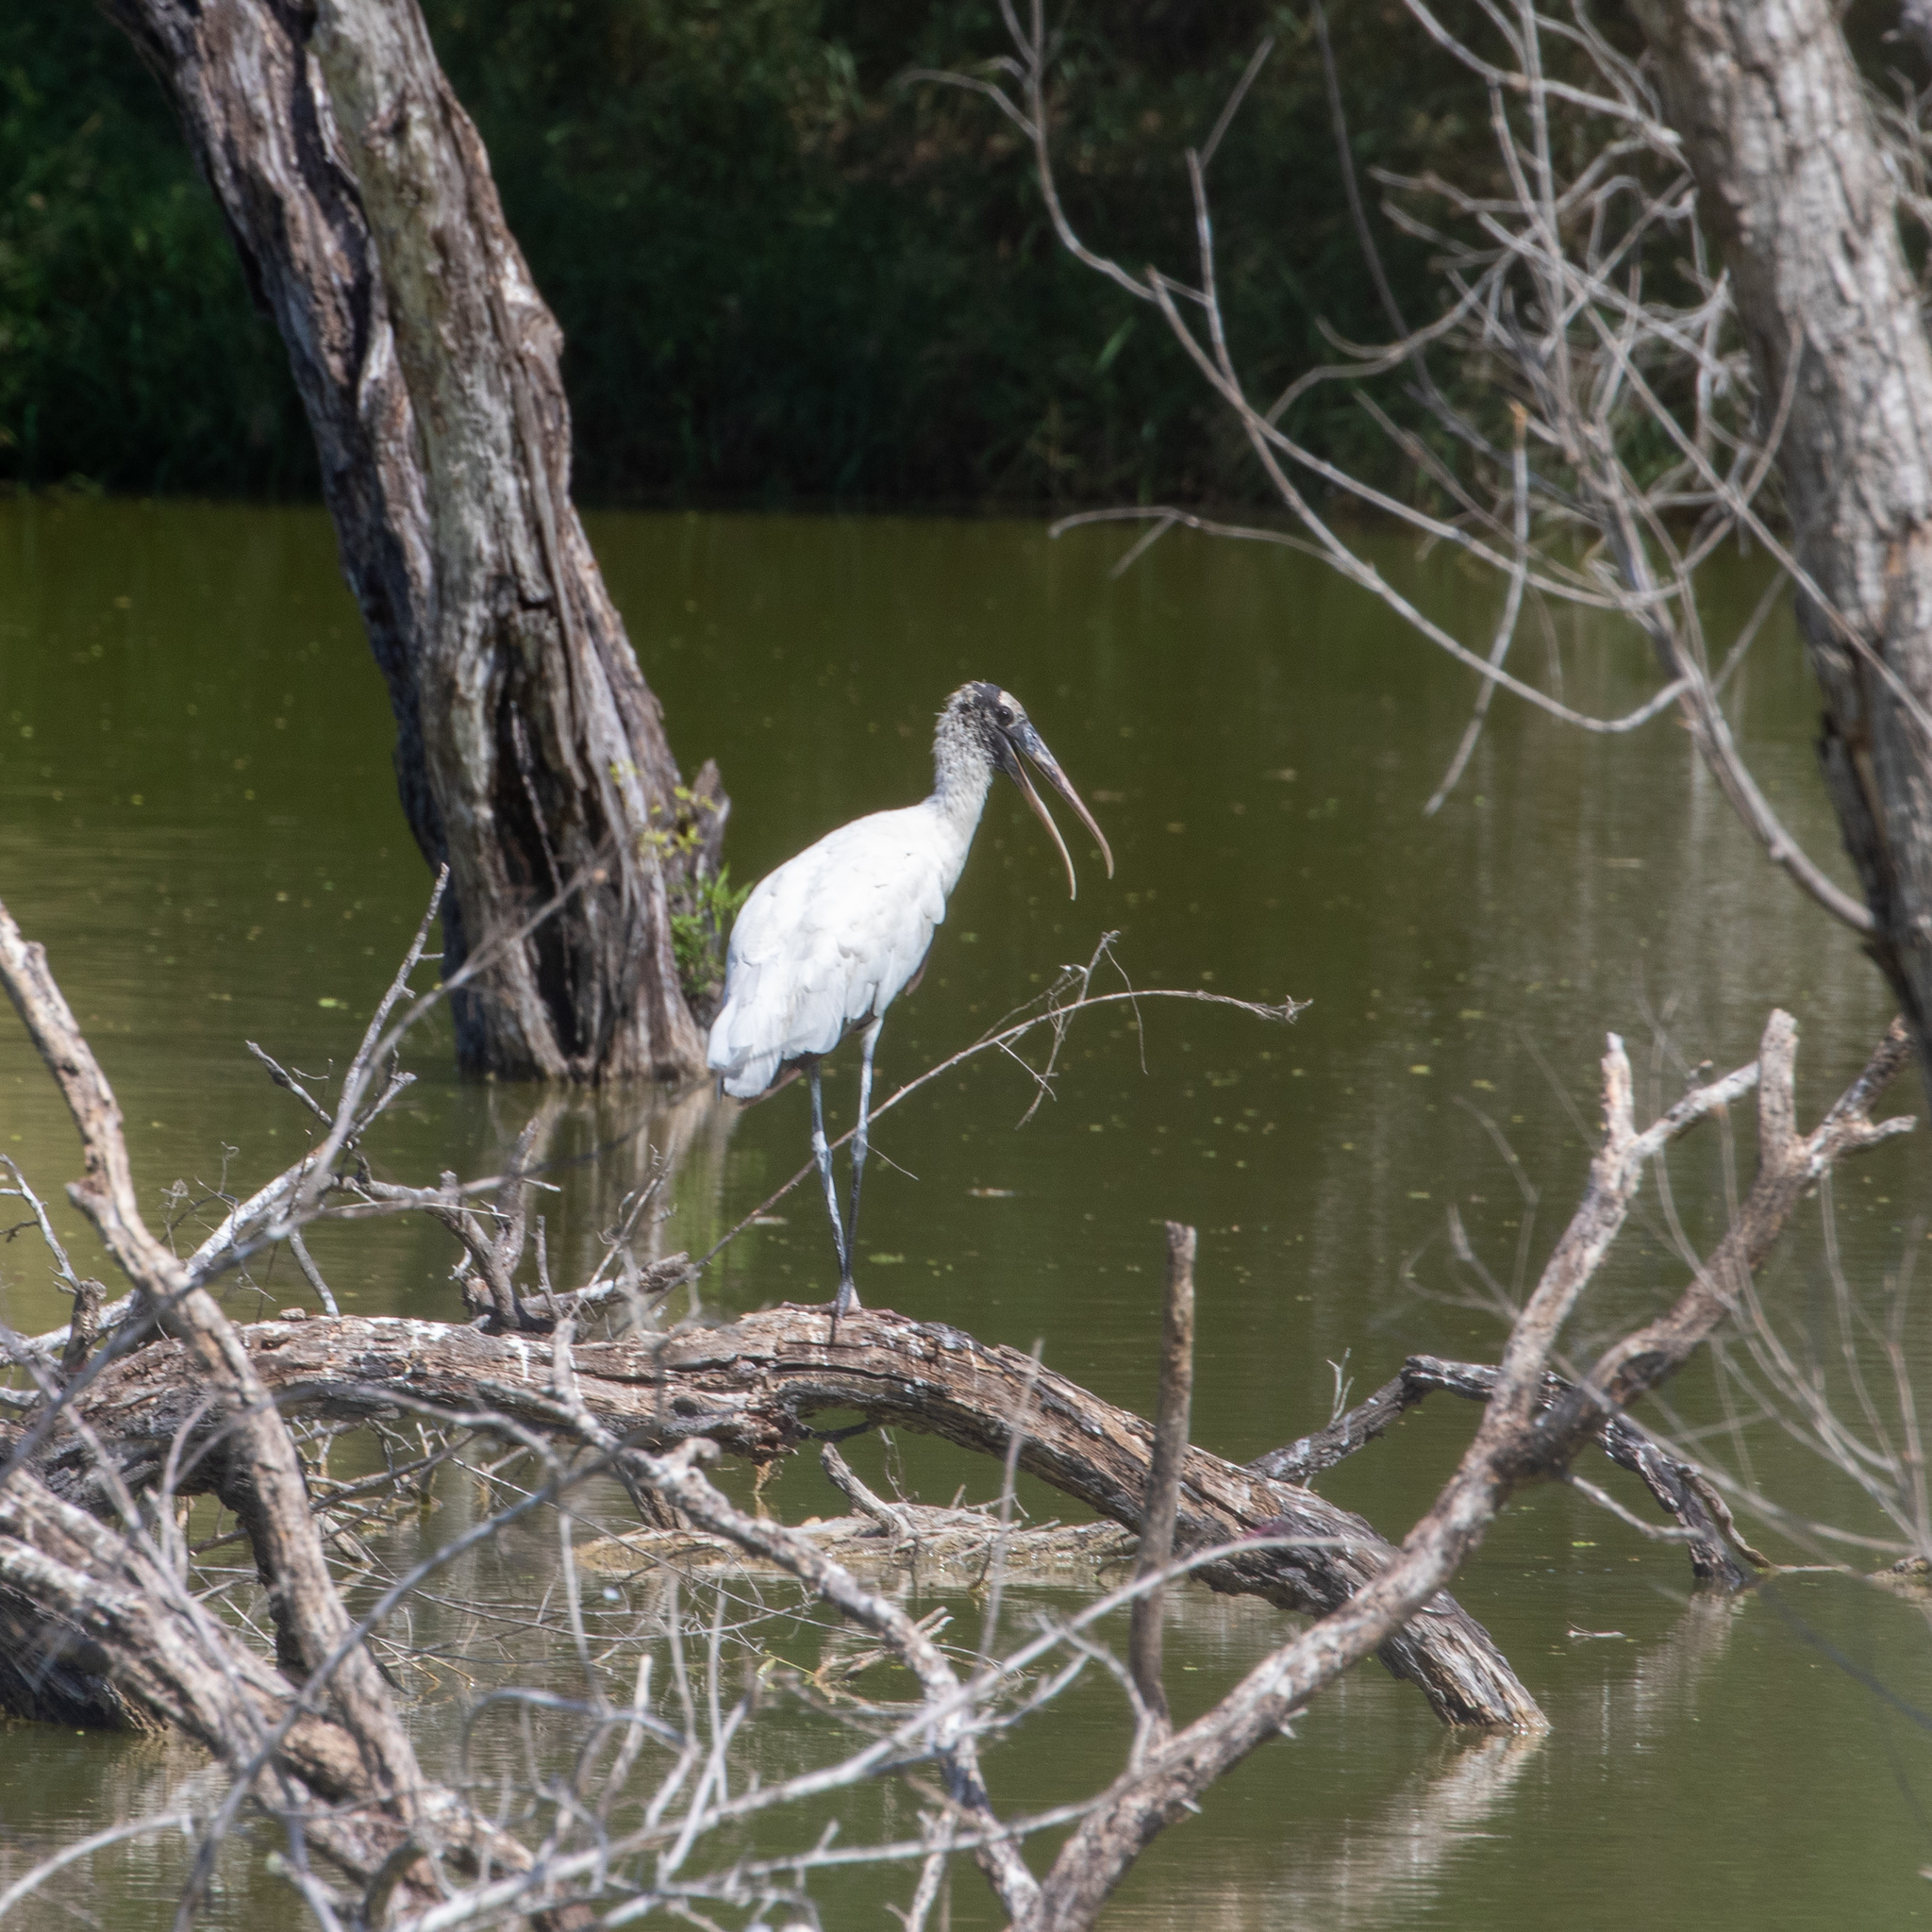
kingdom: Animalia
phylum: Chordata
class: Aves
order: Ciconiiformes
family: Ciconiidae
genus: Mycteria
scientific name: Mycteria americana
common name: Wood stork
